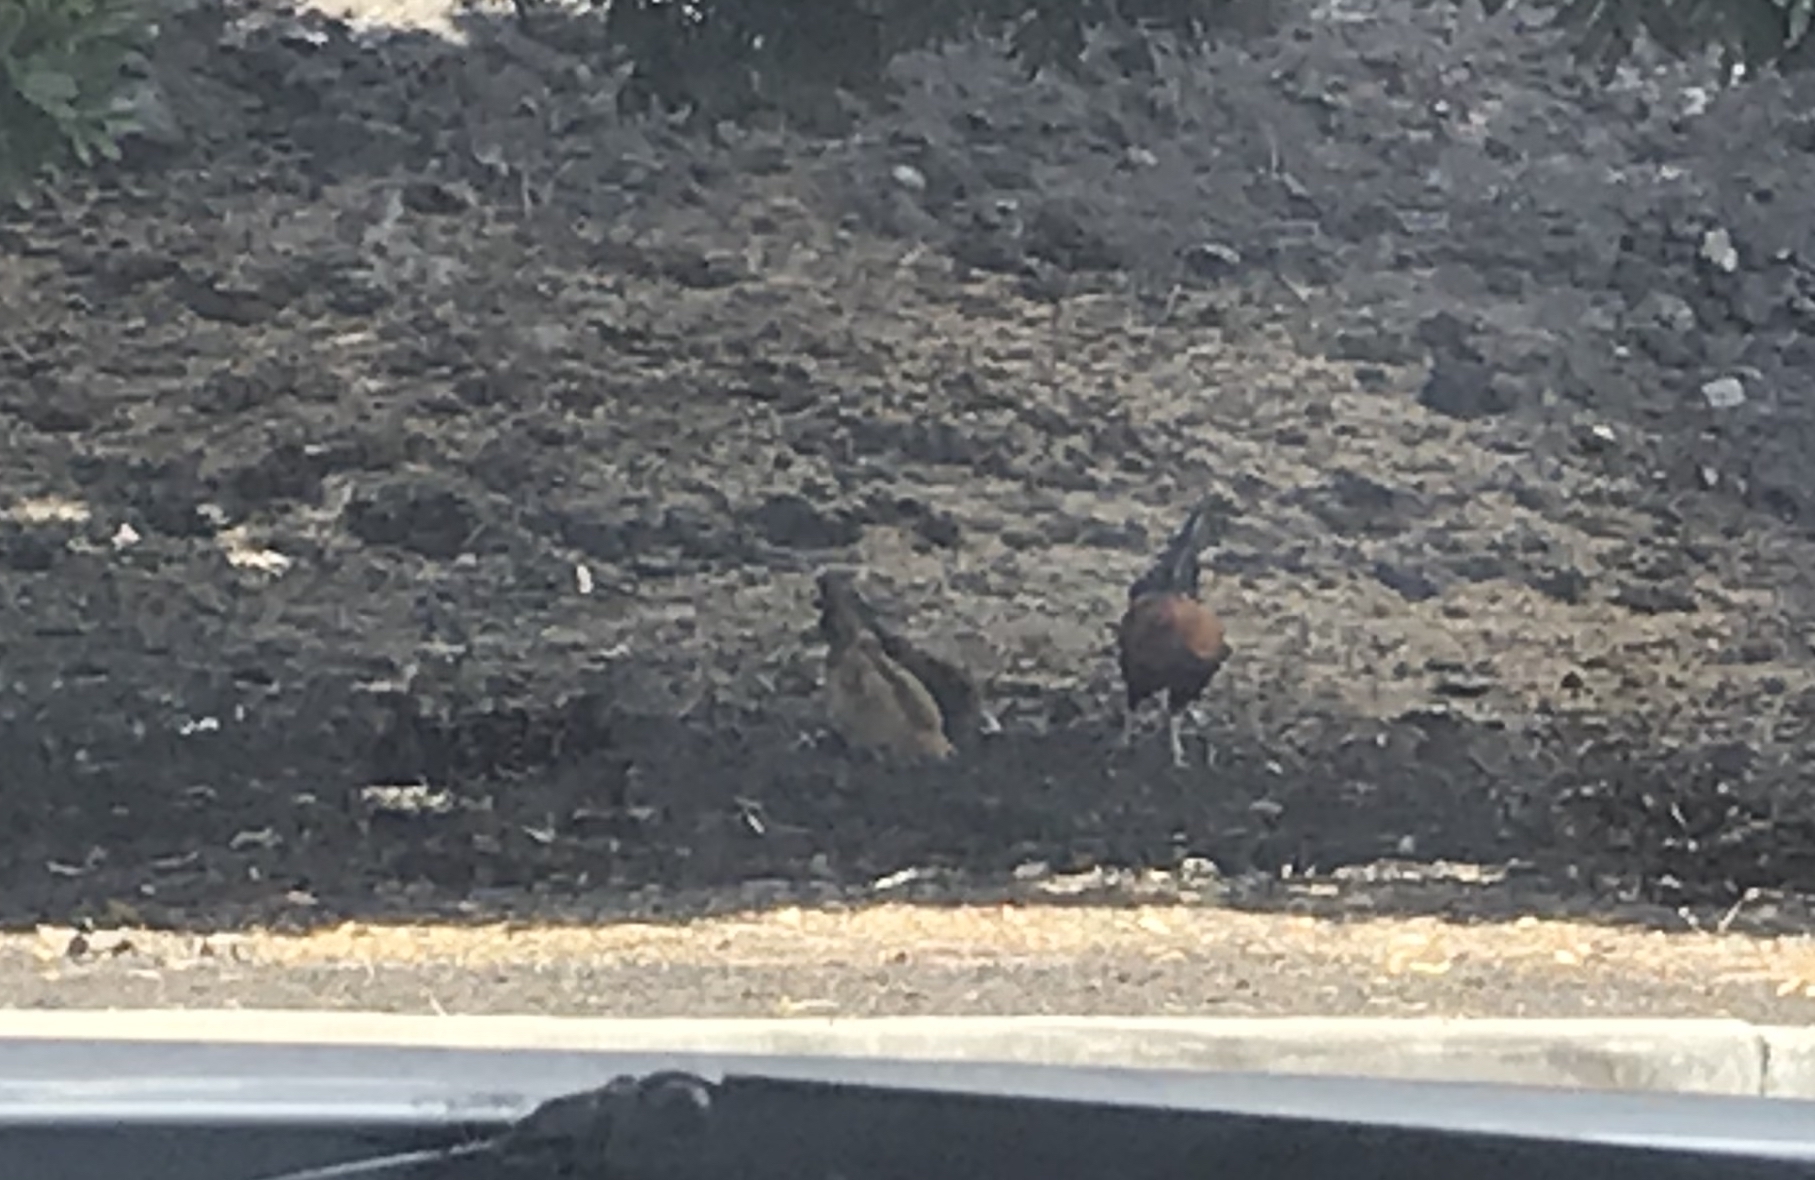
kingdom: Animalia
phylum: Chordata
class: Aves
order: Galliformes
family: Phasianidae
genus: Gallus
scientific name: Gallus gallus
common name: Red junglefowl
